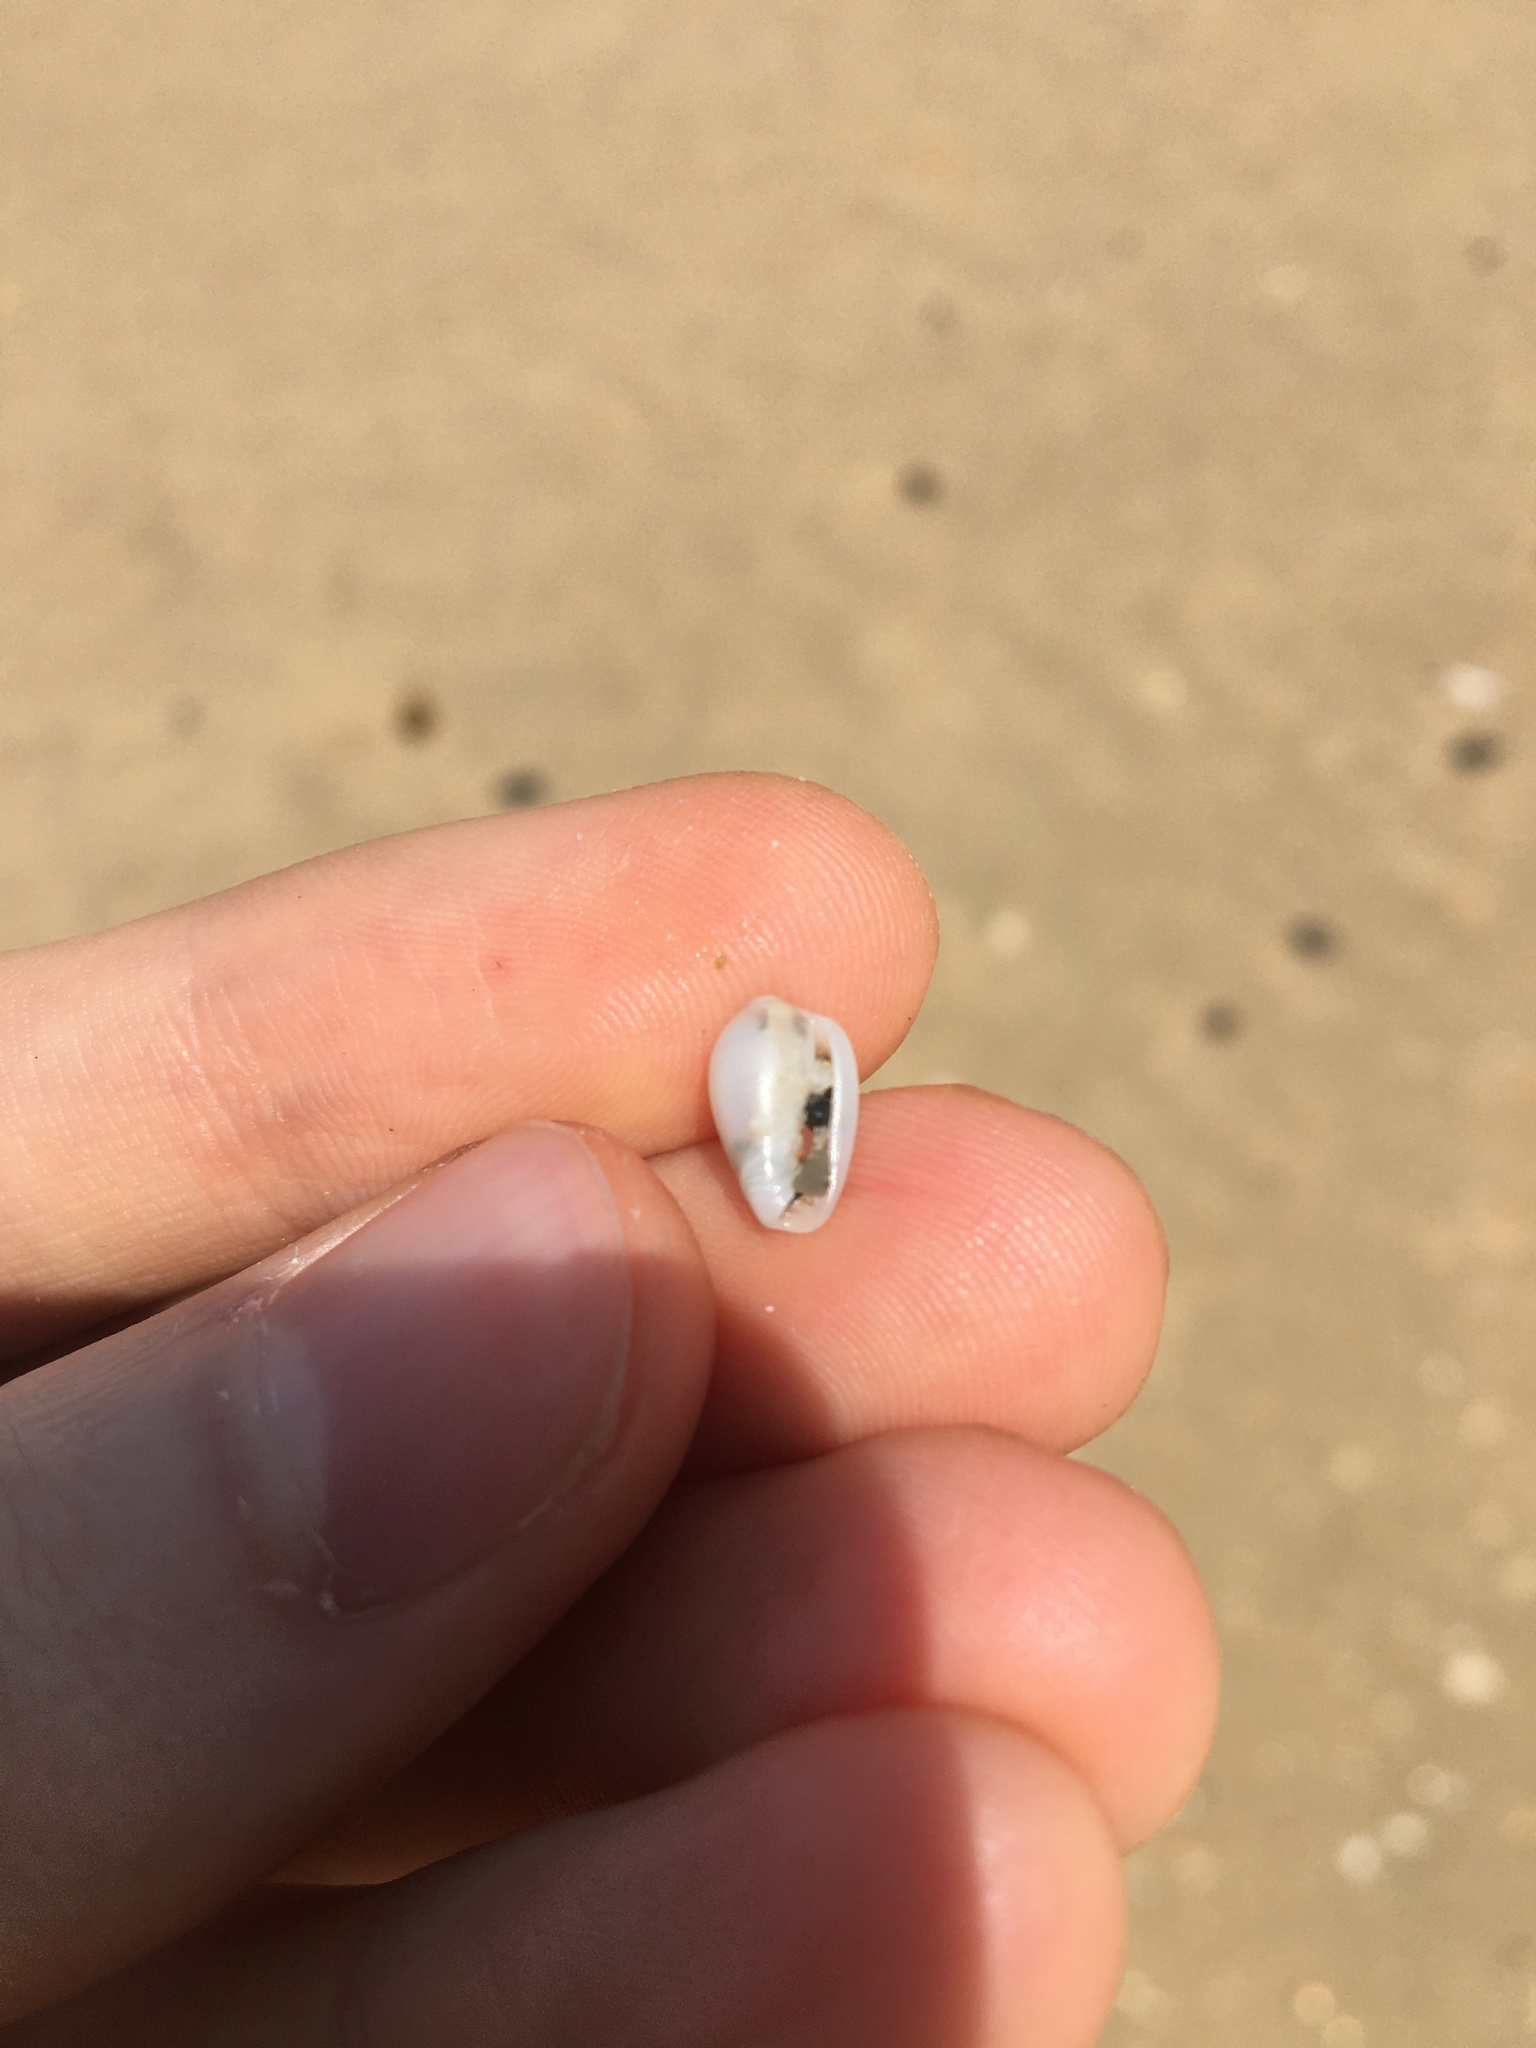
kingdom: Animalia
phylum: Mollusca
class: Gastropoda
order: Neogastropoda
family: Marginellidae
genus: Mesoginella
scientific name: Mesoginella turbinata
